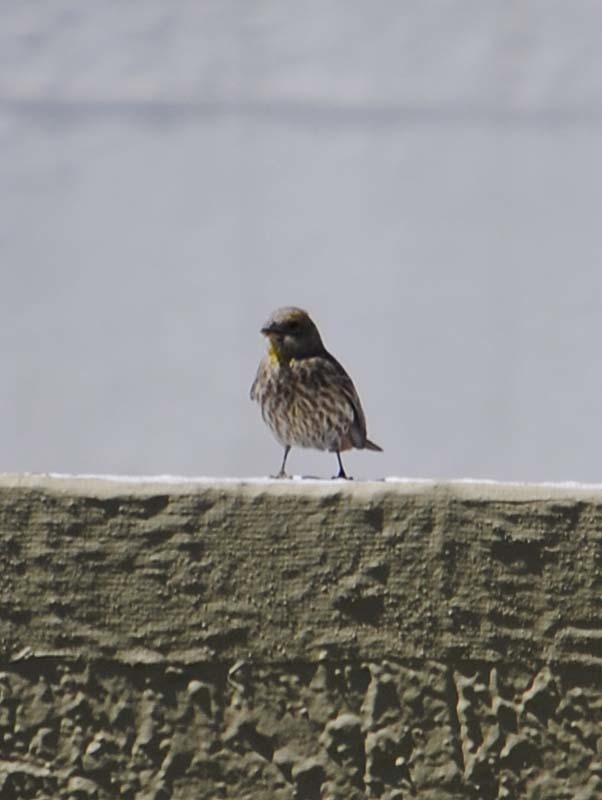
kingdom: Animalia
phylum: Chordata
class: Aves
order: Passeriformes
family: Fringillidae
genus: Haemorhous
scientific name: Haemorhous mexicanus
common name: House finch
